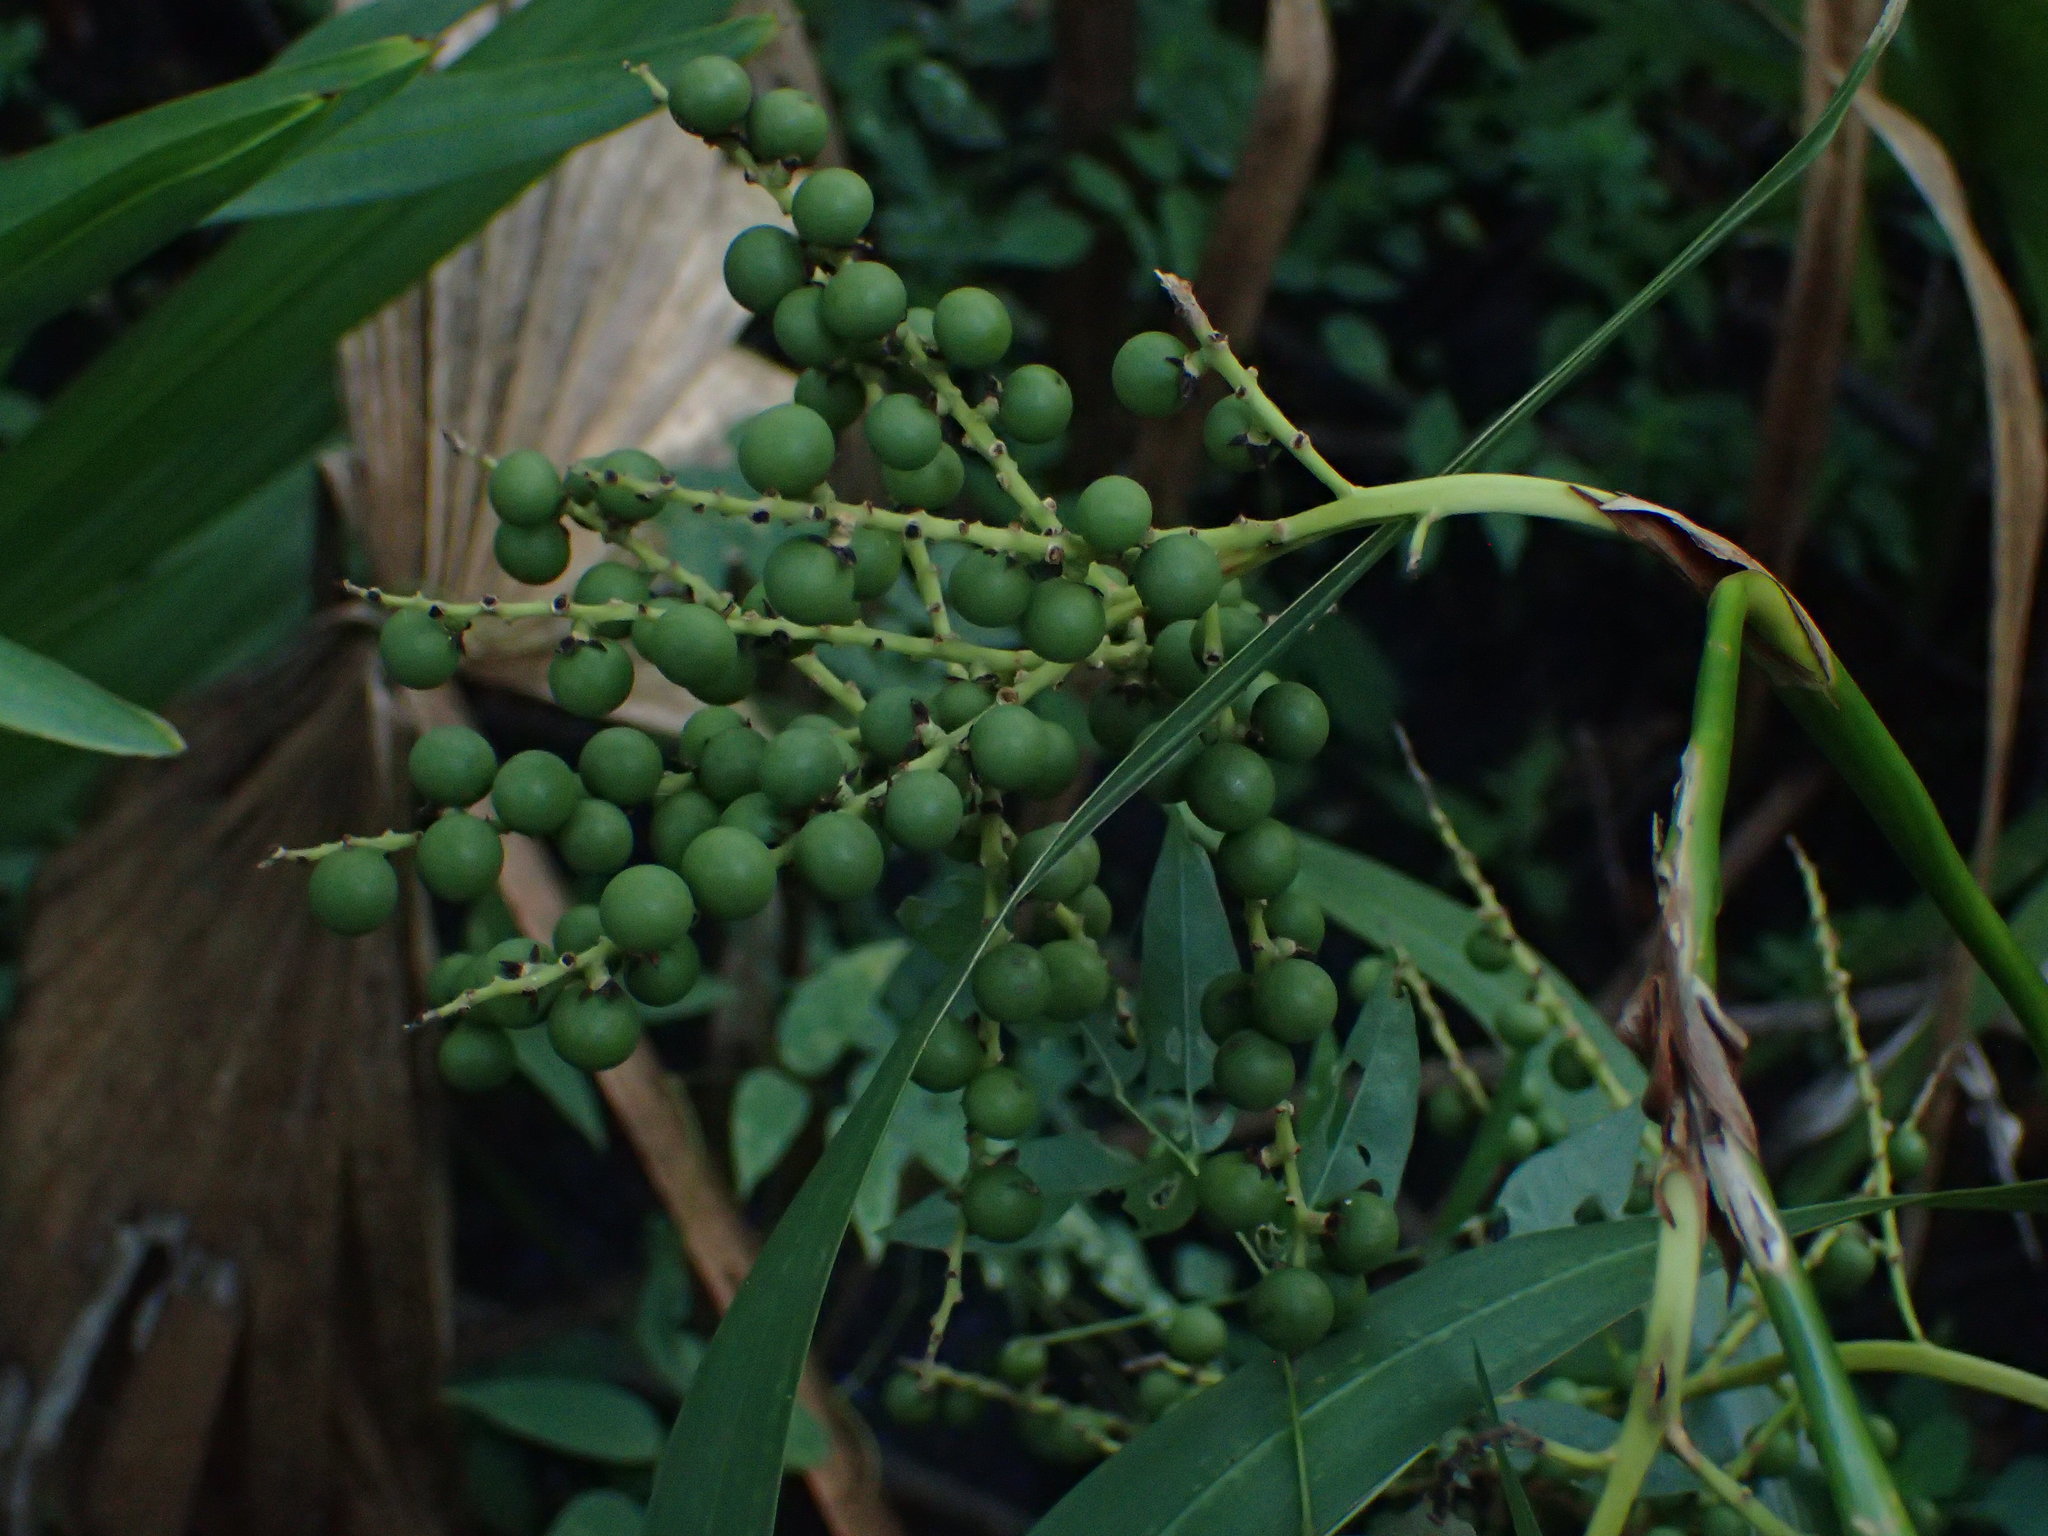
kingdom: Plantae
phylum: Tracheophyta
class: Liliopsida
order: Arecales
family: Arecaceae
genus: Sabal
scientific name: Sabal minor
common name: Dwarf palmetto
